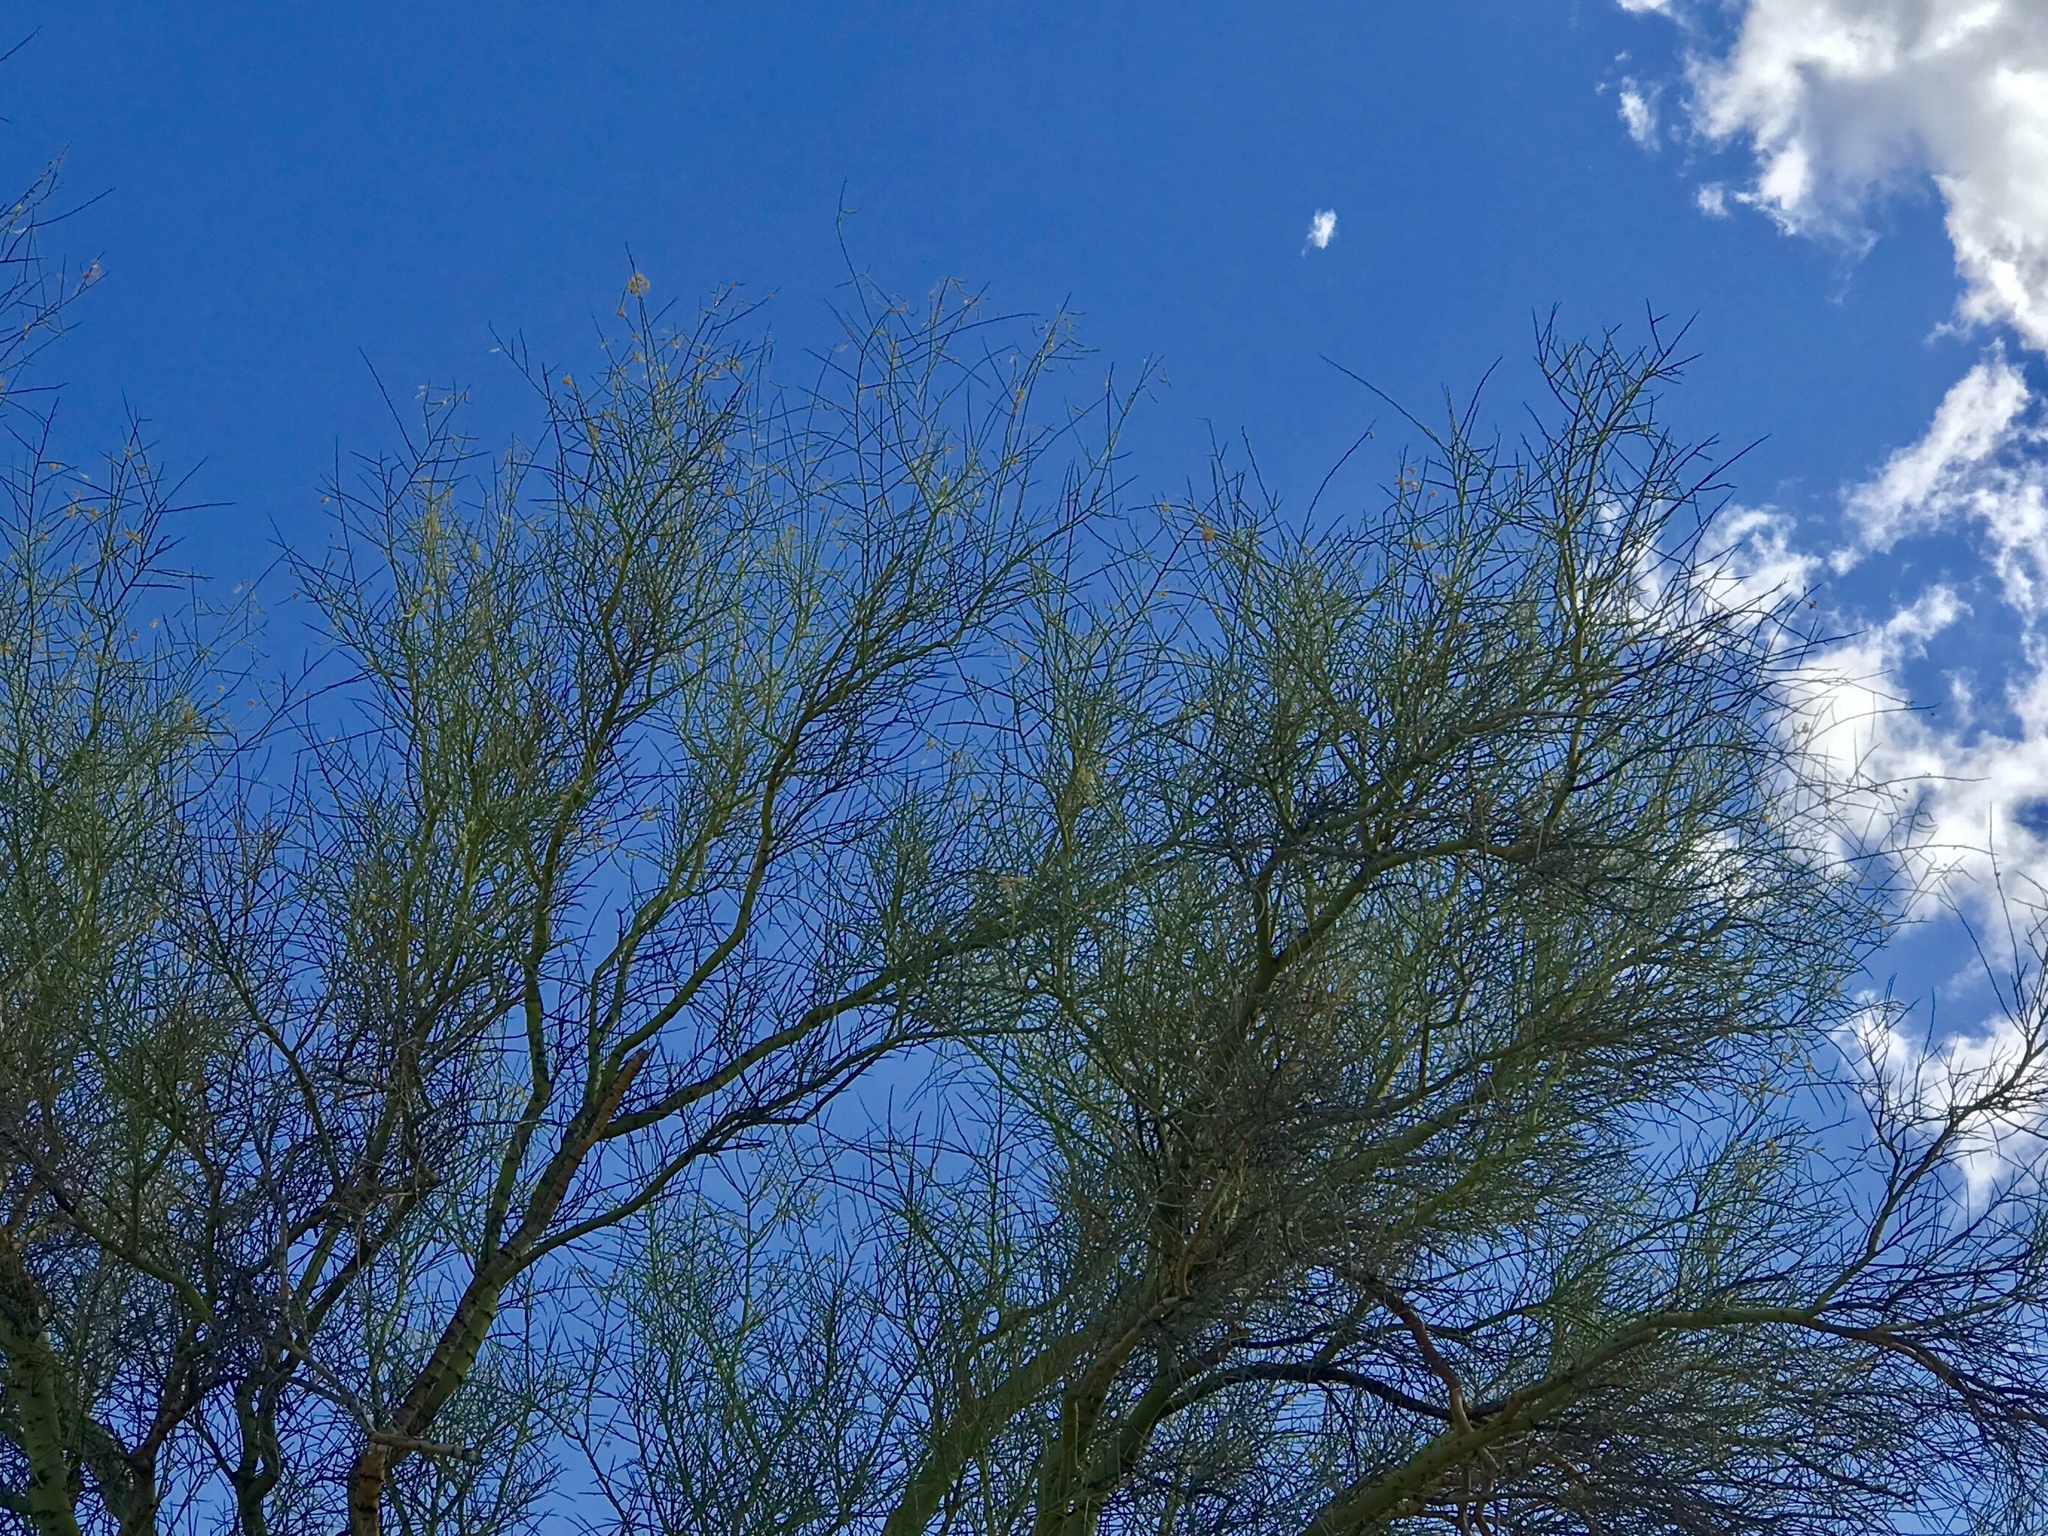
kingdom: Plantae
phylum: Tracheophyta
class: Magnoliopsida
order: Fabales
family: Fabaceae
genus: Parkinsonia
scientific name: Parkinsonia microphylla
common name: Yellow paloverde
